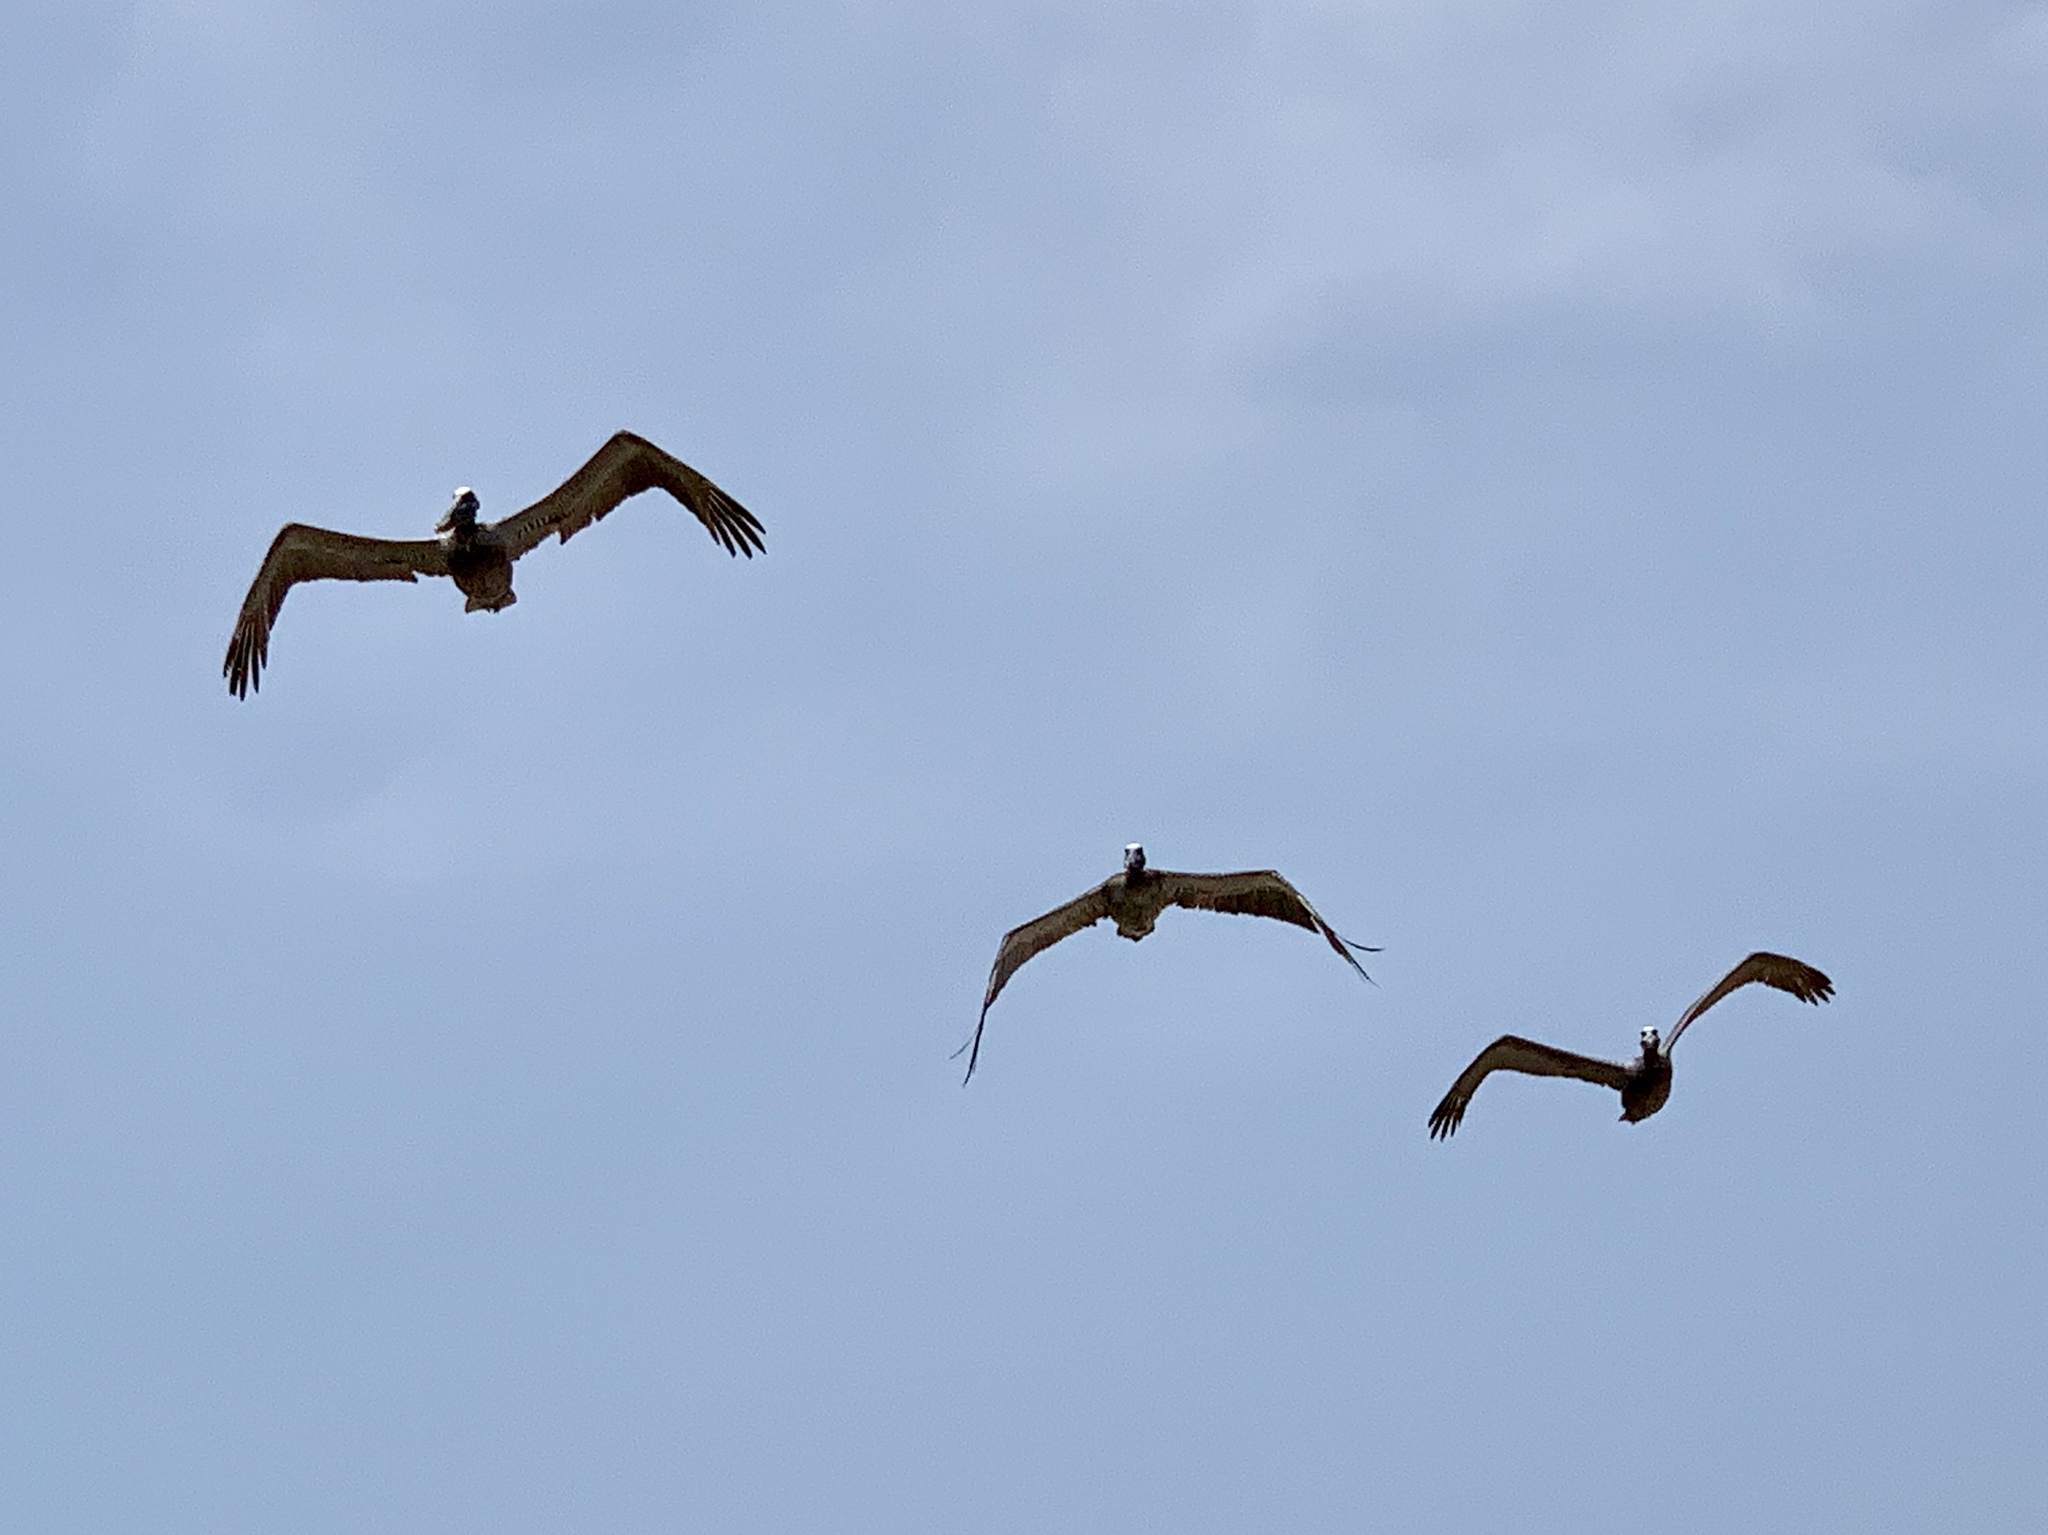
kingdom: Animalia
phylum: Chordata
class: Aves
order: Pelecaniformes
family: Pelecanidae
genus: Pelecanus
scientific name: Pelecanus occidentalis
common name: Brown pelican
